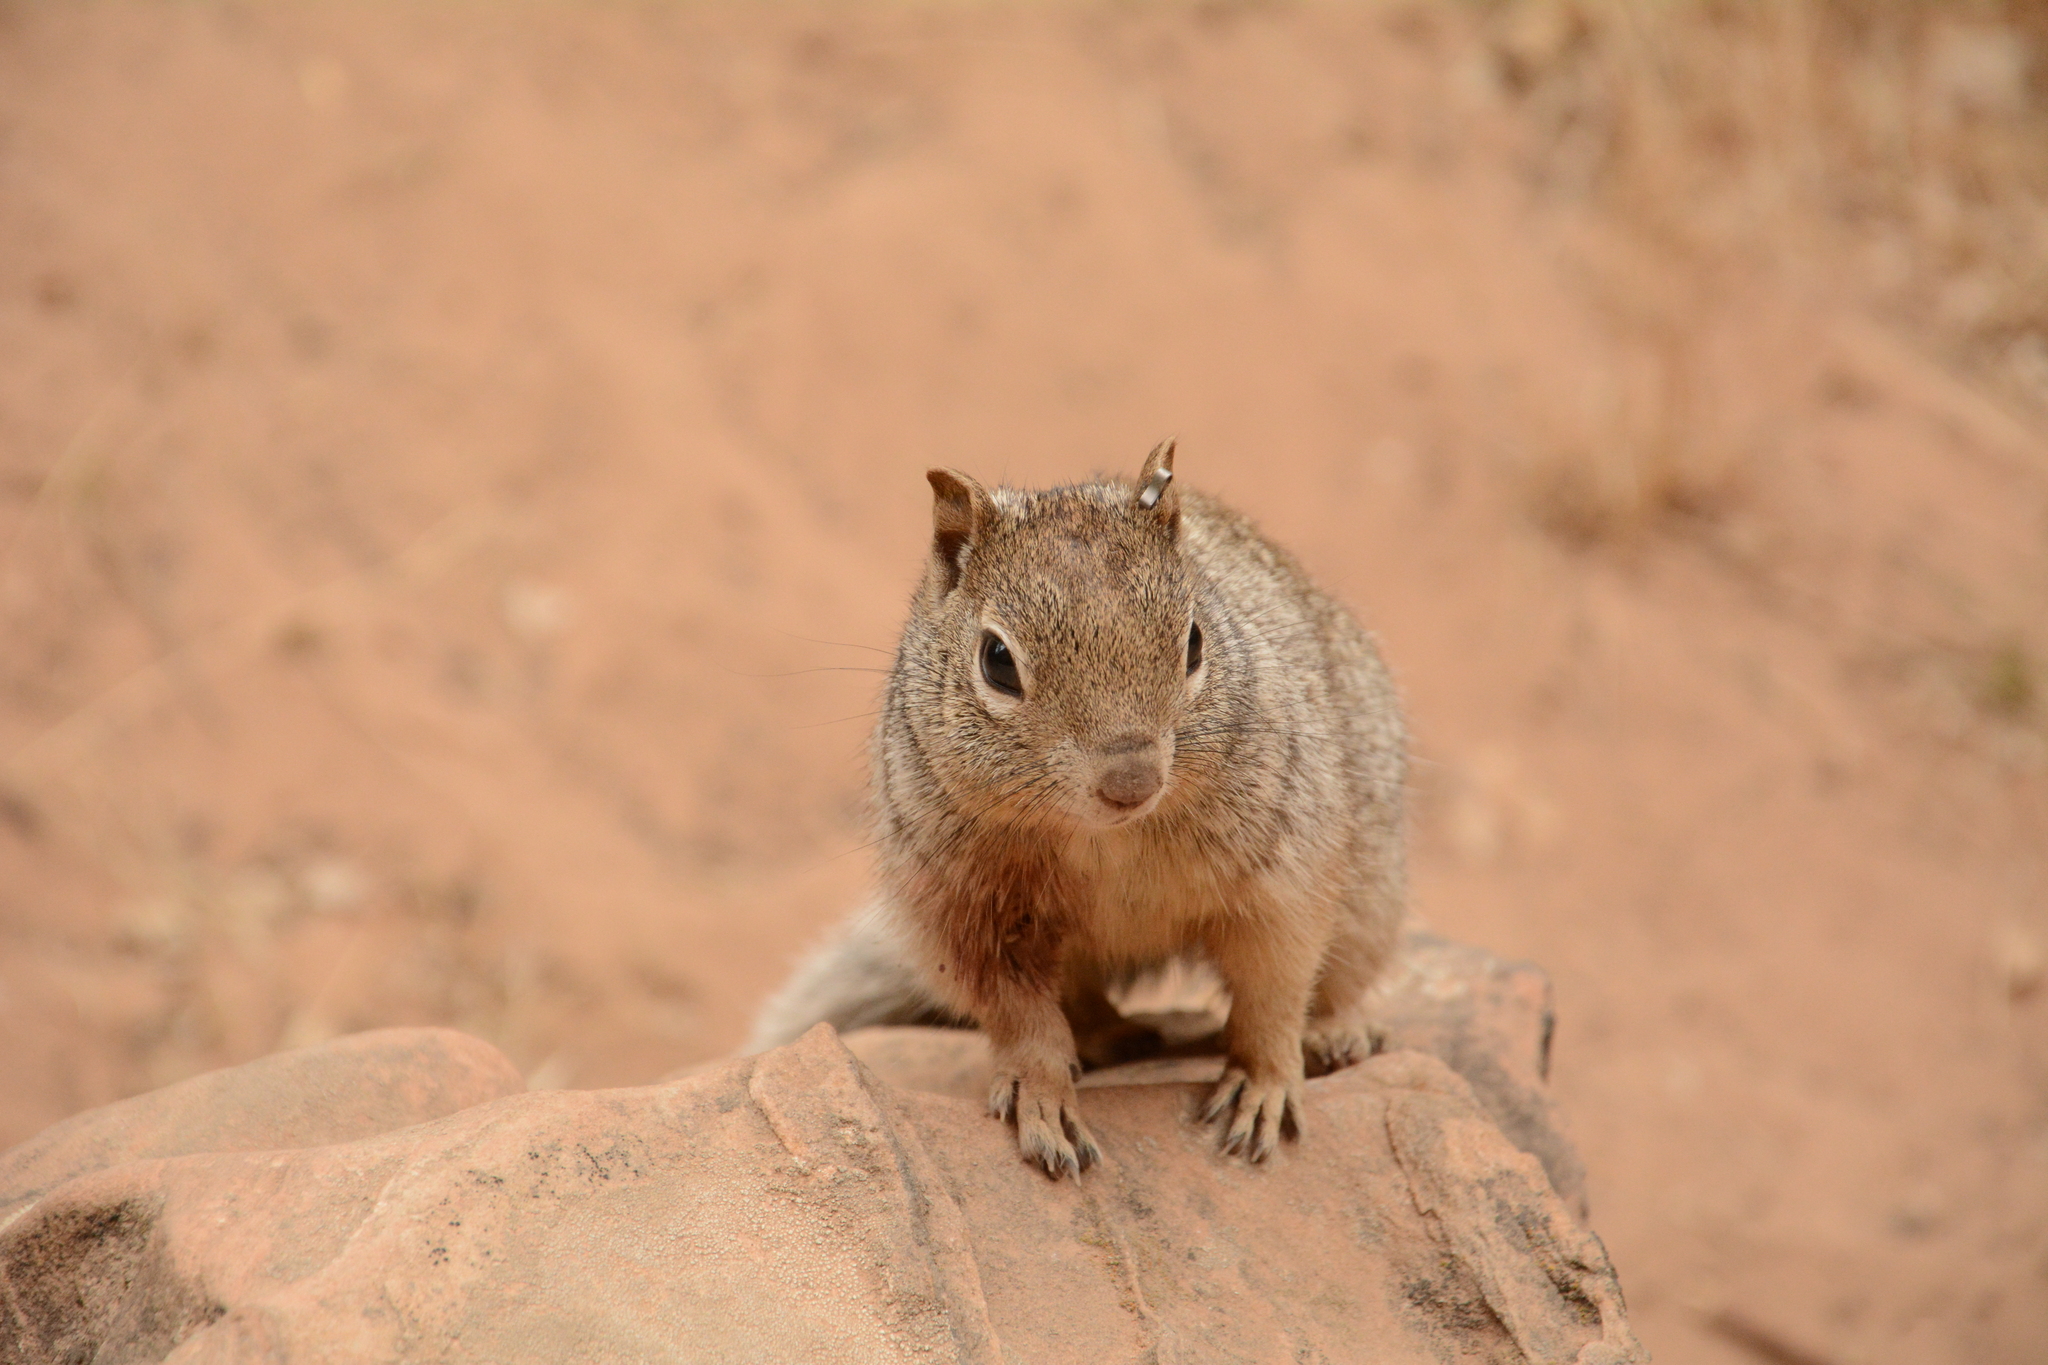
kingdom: Animalia
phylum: Chordata
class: Mammalia
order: Rodentia
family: Sciuridae
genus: Otospermophilus
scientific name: Otospermophilus variegatus
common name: Rock squirrel
